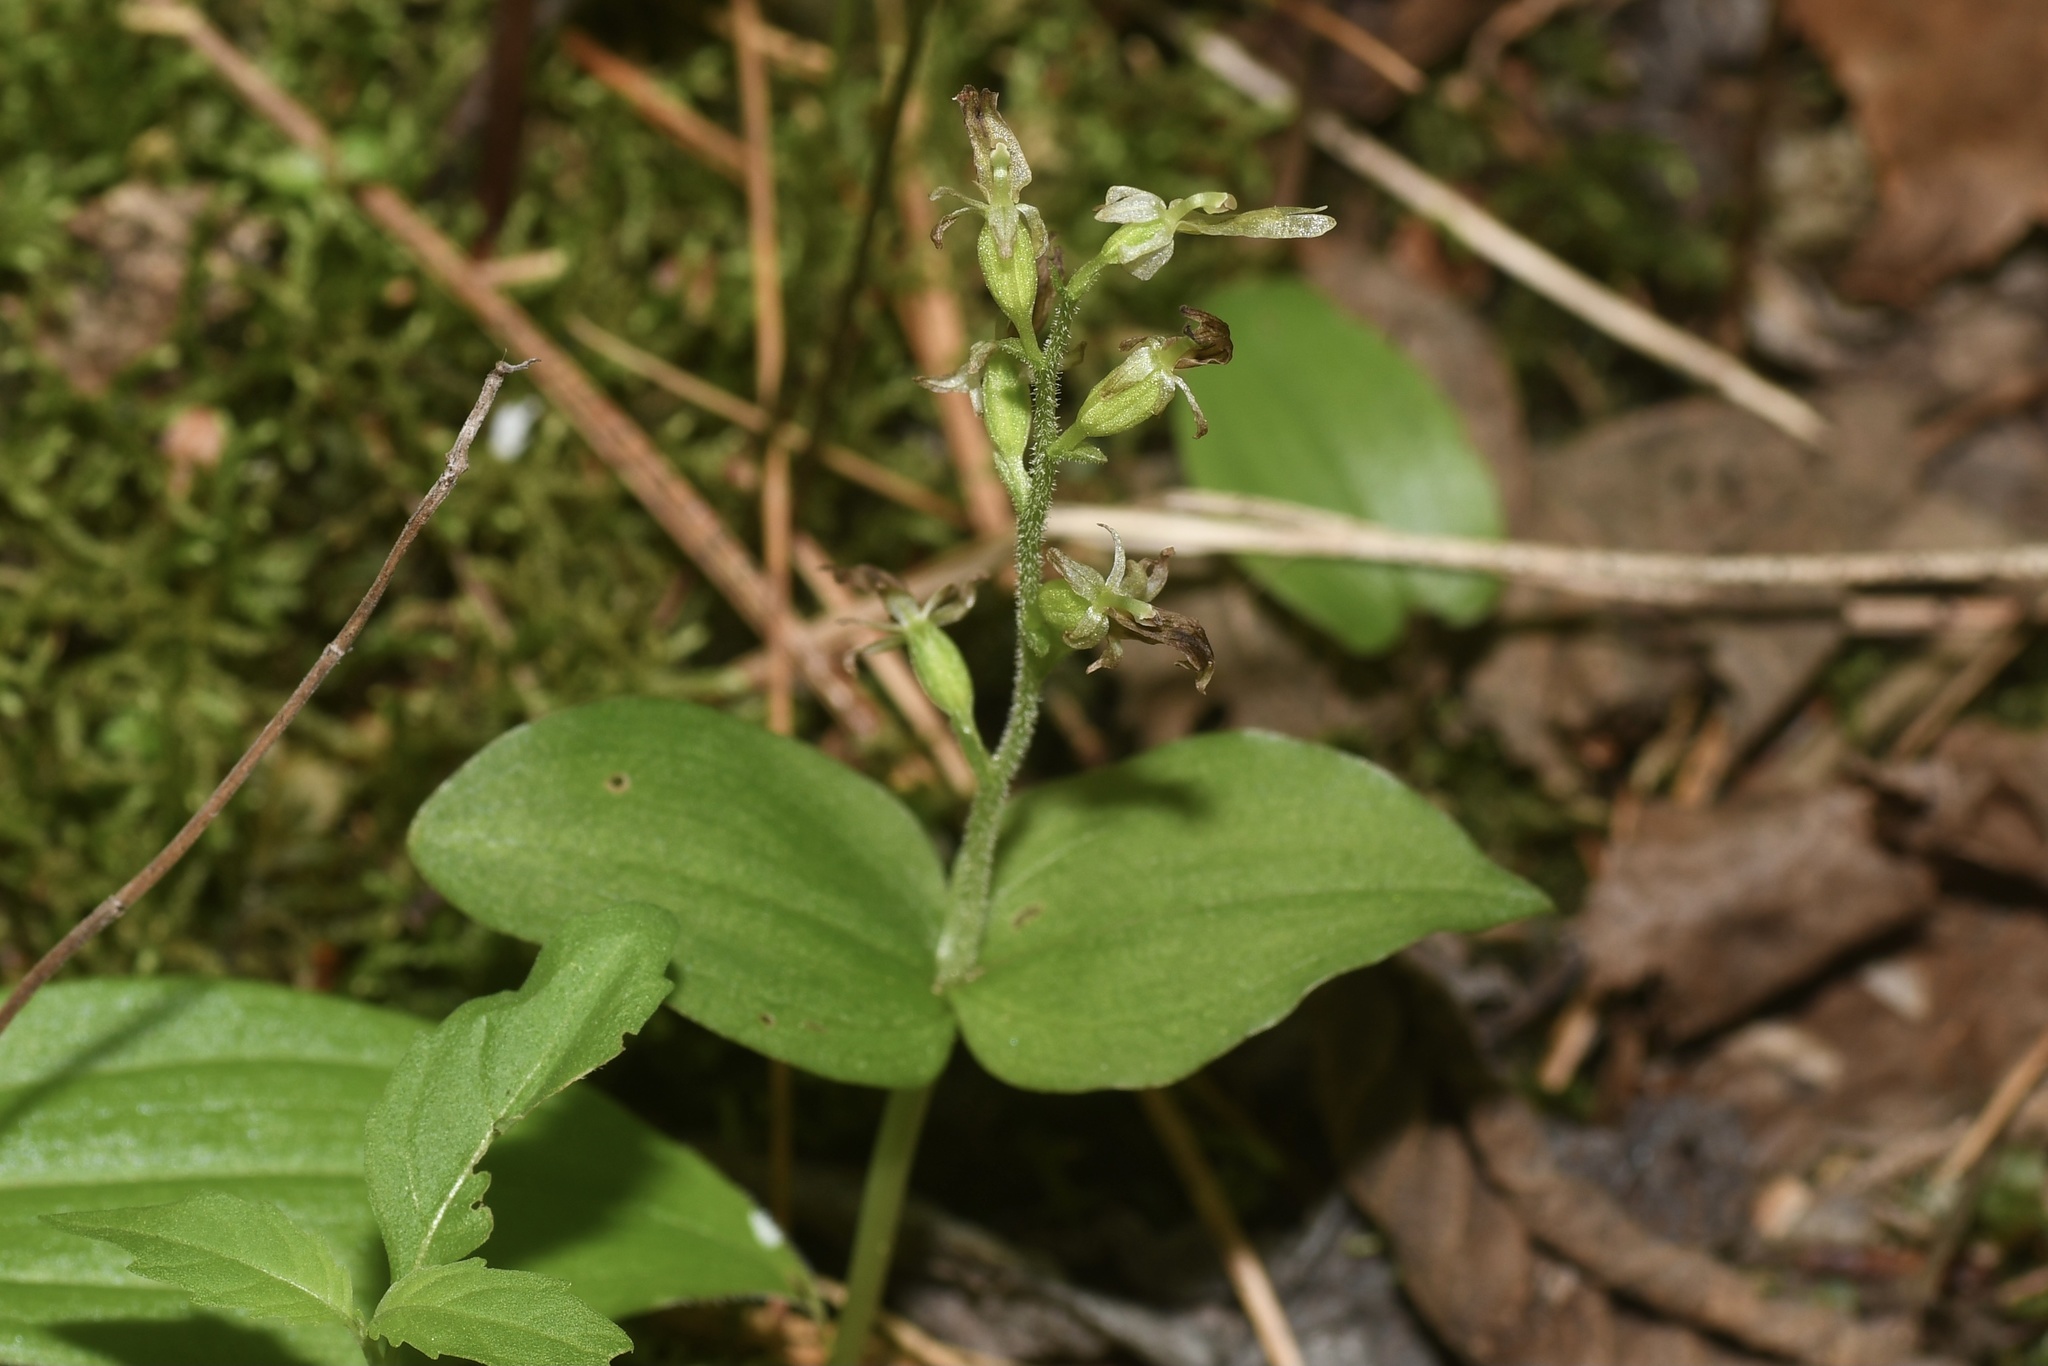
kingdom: Plantae
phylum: Tracheophyta
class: Liliopsida
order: Asparagales
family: Orchidaceae
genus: Neottia
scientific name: Neottia auriculata
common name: Auricled twayblade
